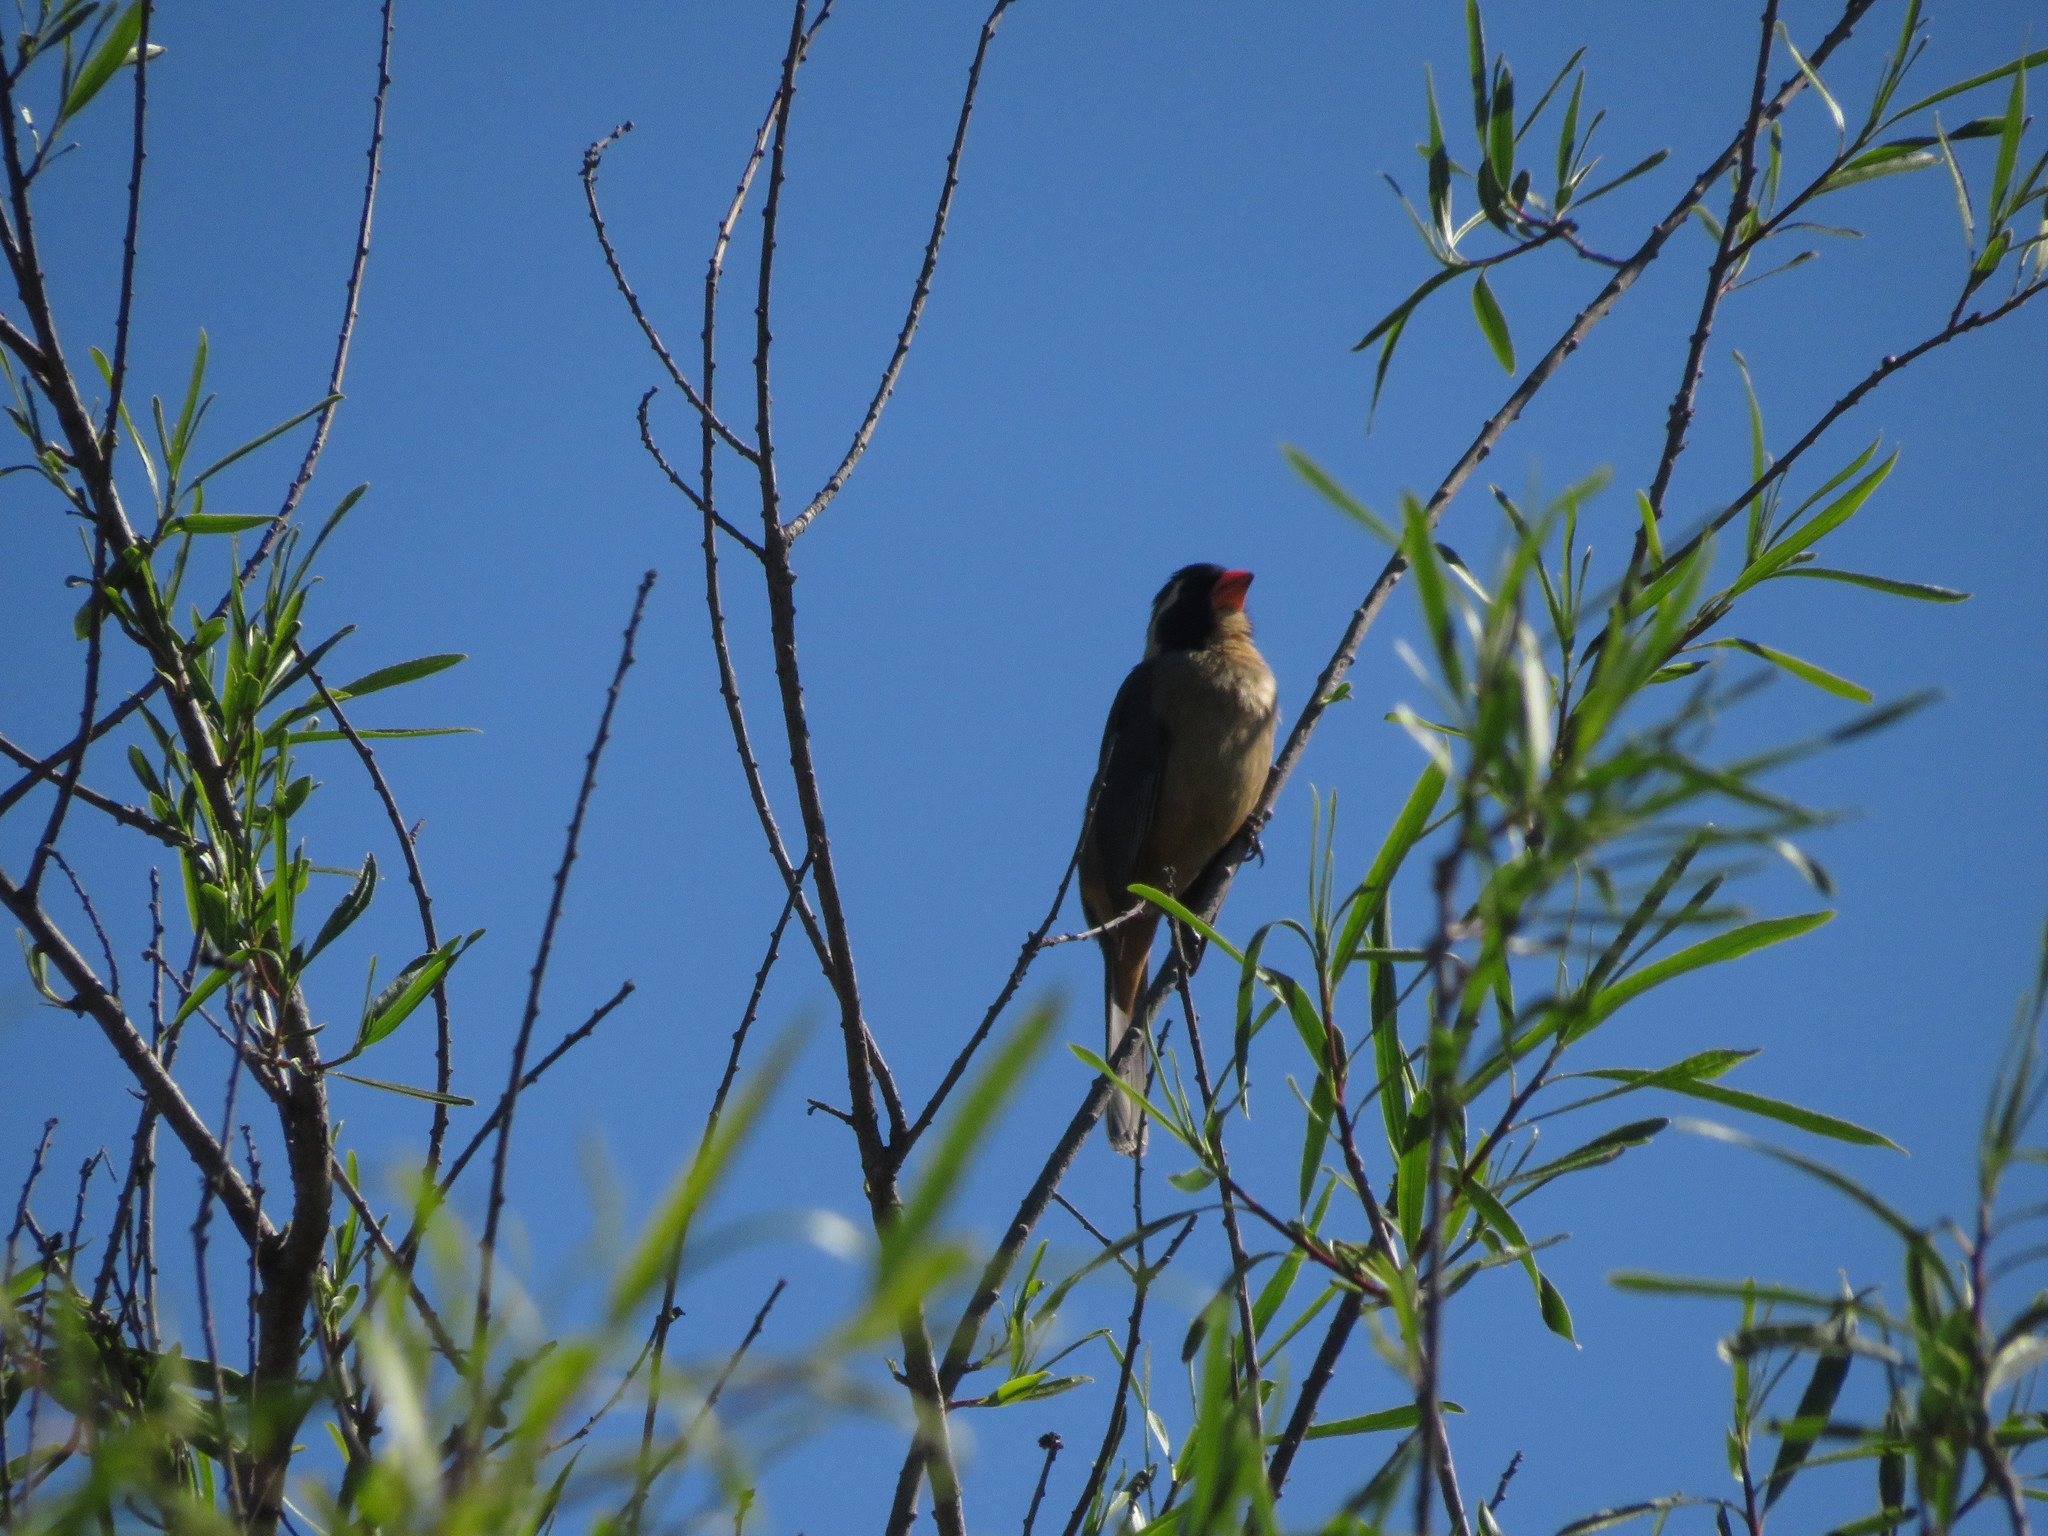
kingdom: Animalia
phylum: Chordata
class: Aves
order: Passeriformes
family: Thraupidae
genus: Saltator
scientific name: Saltator aurantiirostris
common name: Golden-billed saltator
